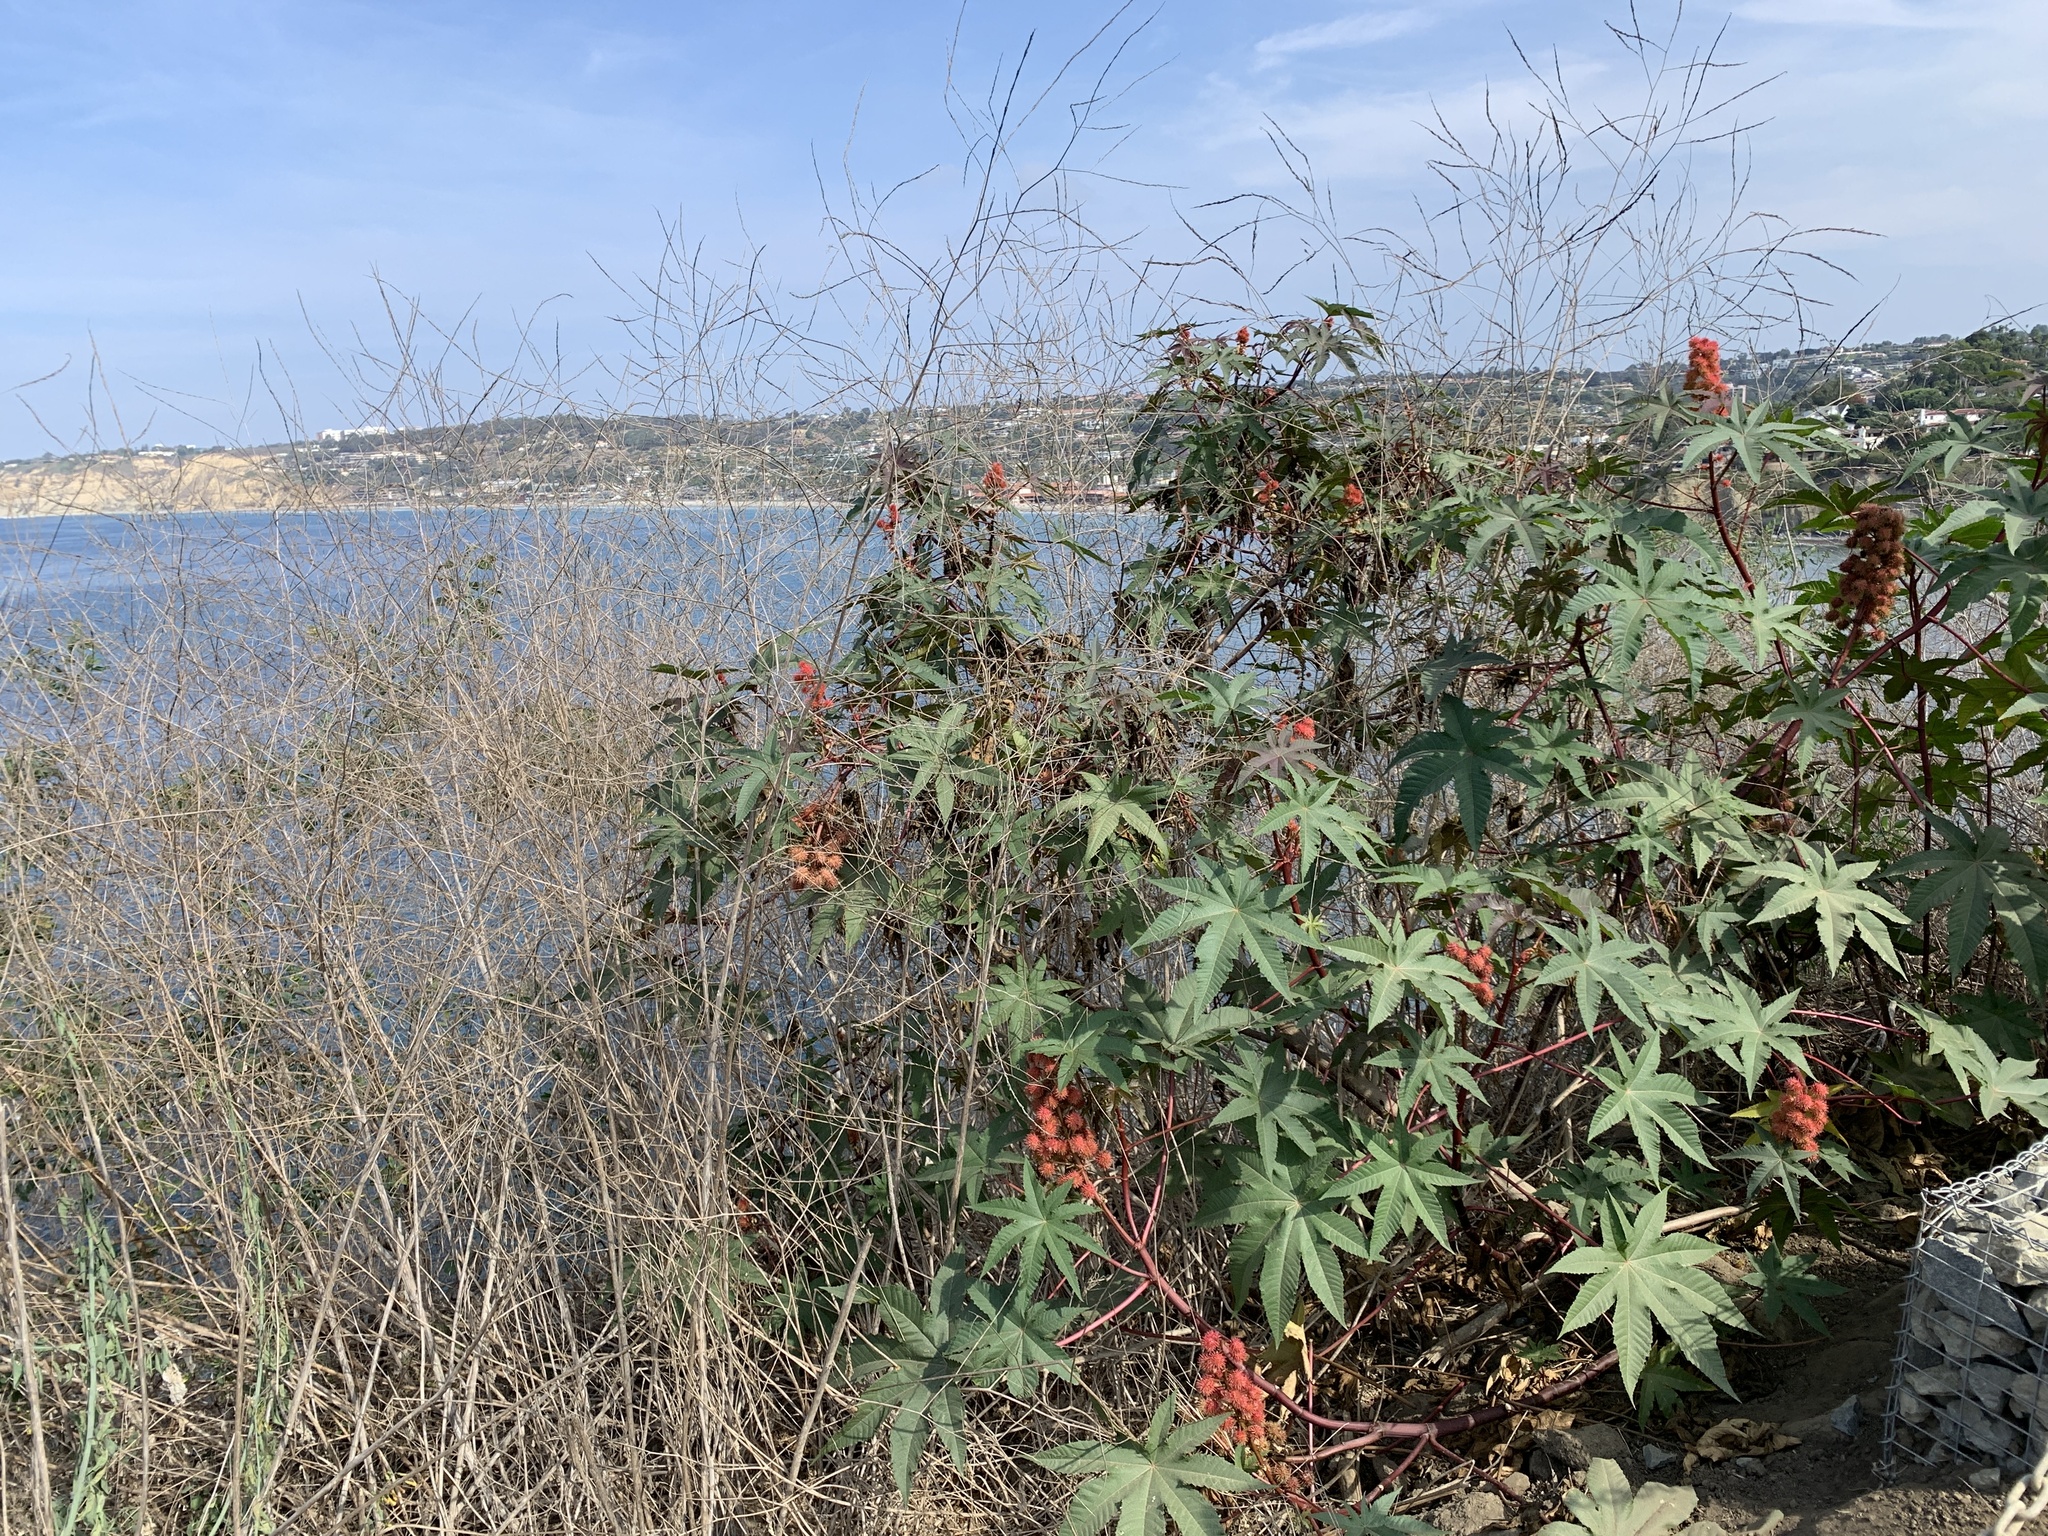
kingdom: Plantae
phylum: Tracheophyta
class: Magnoliopsida
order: Malpighiales
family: Euphorbiaceae
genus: Ricinus
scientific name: Ricinus communis
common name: Castor-oil-plant
